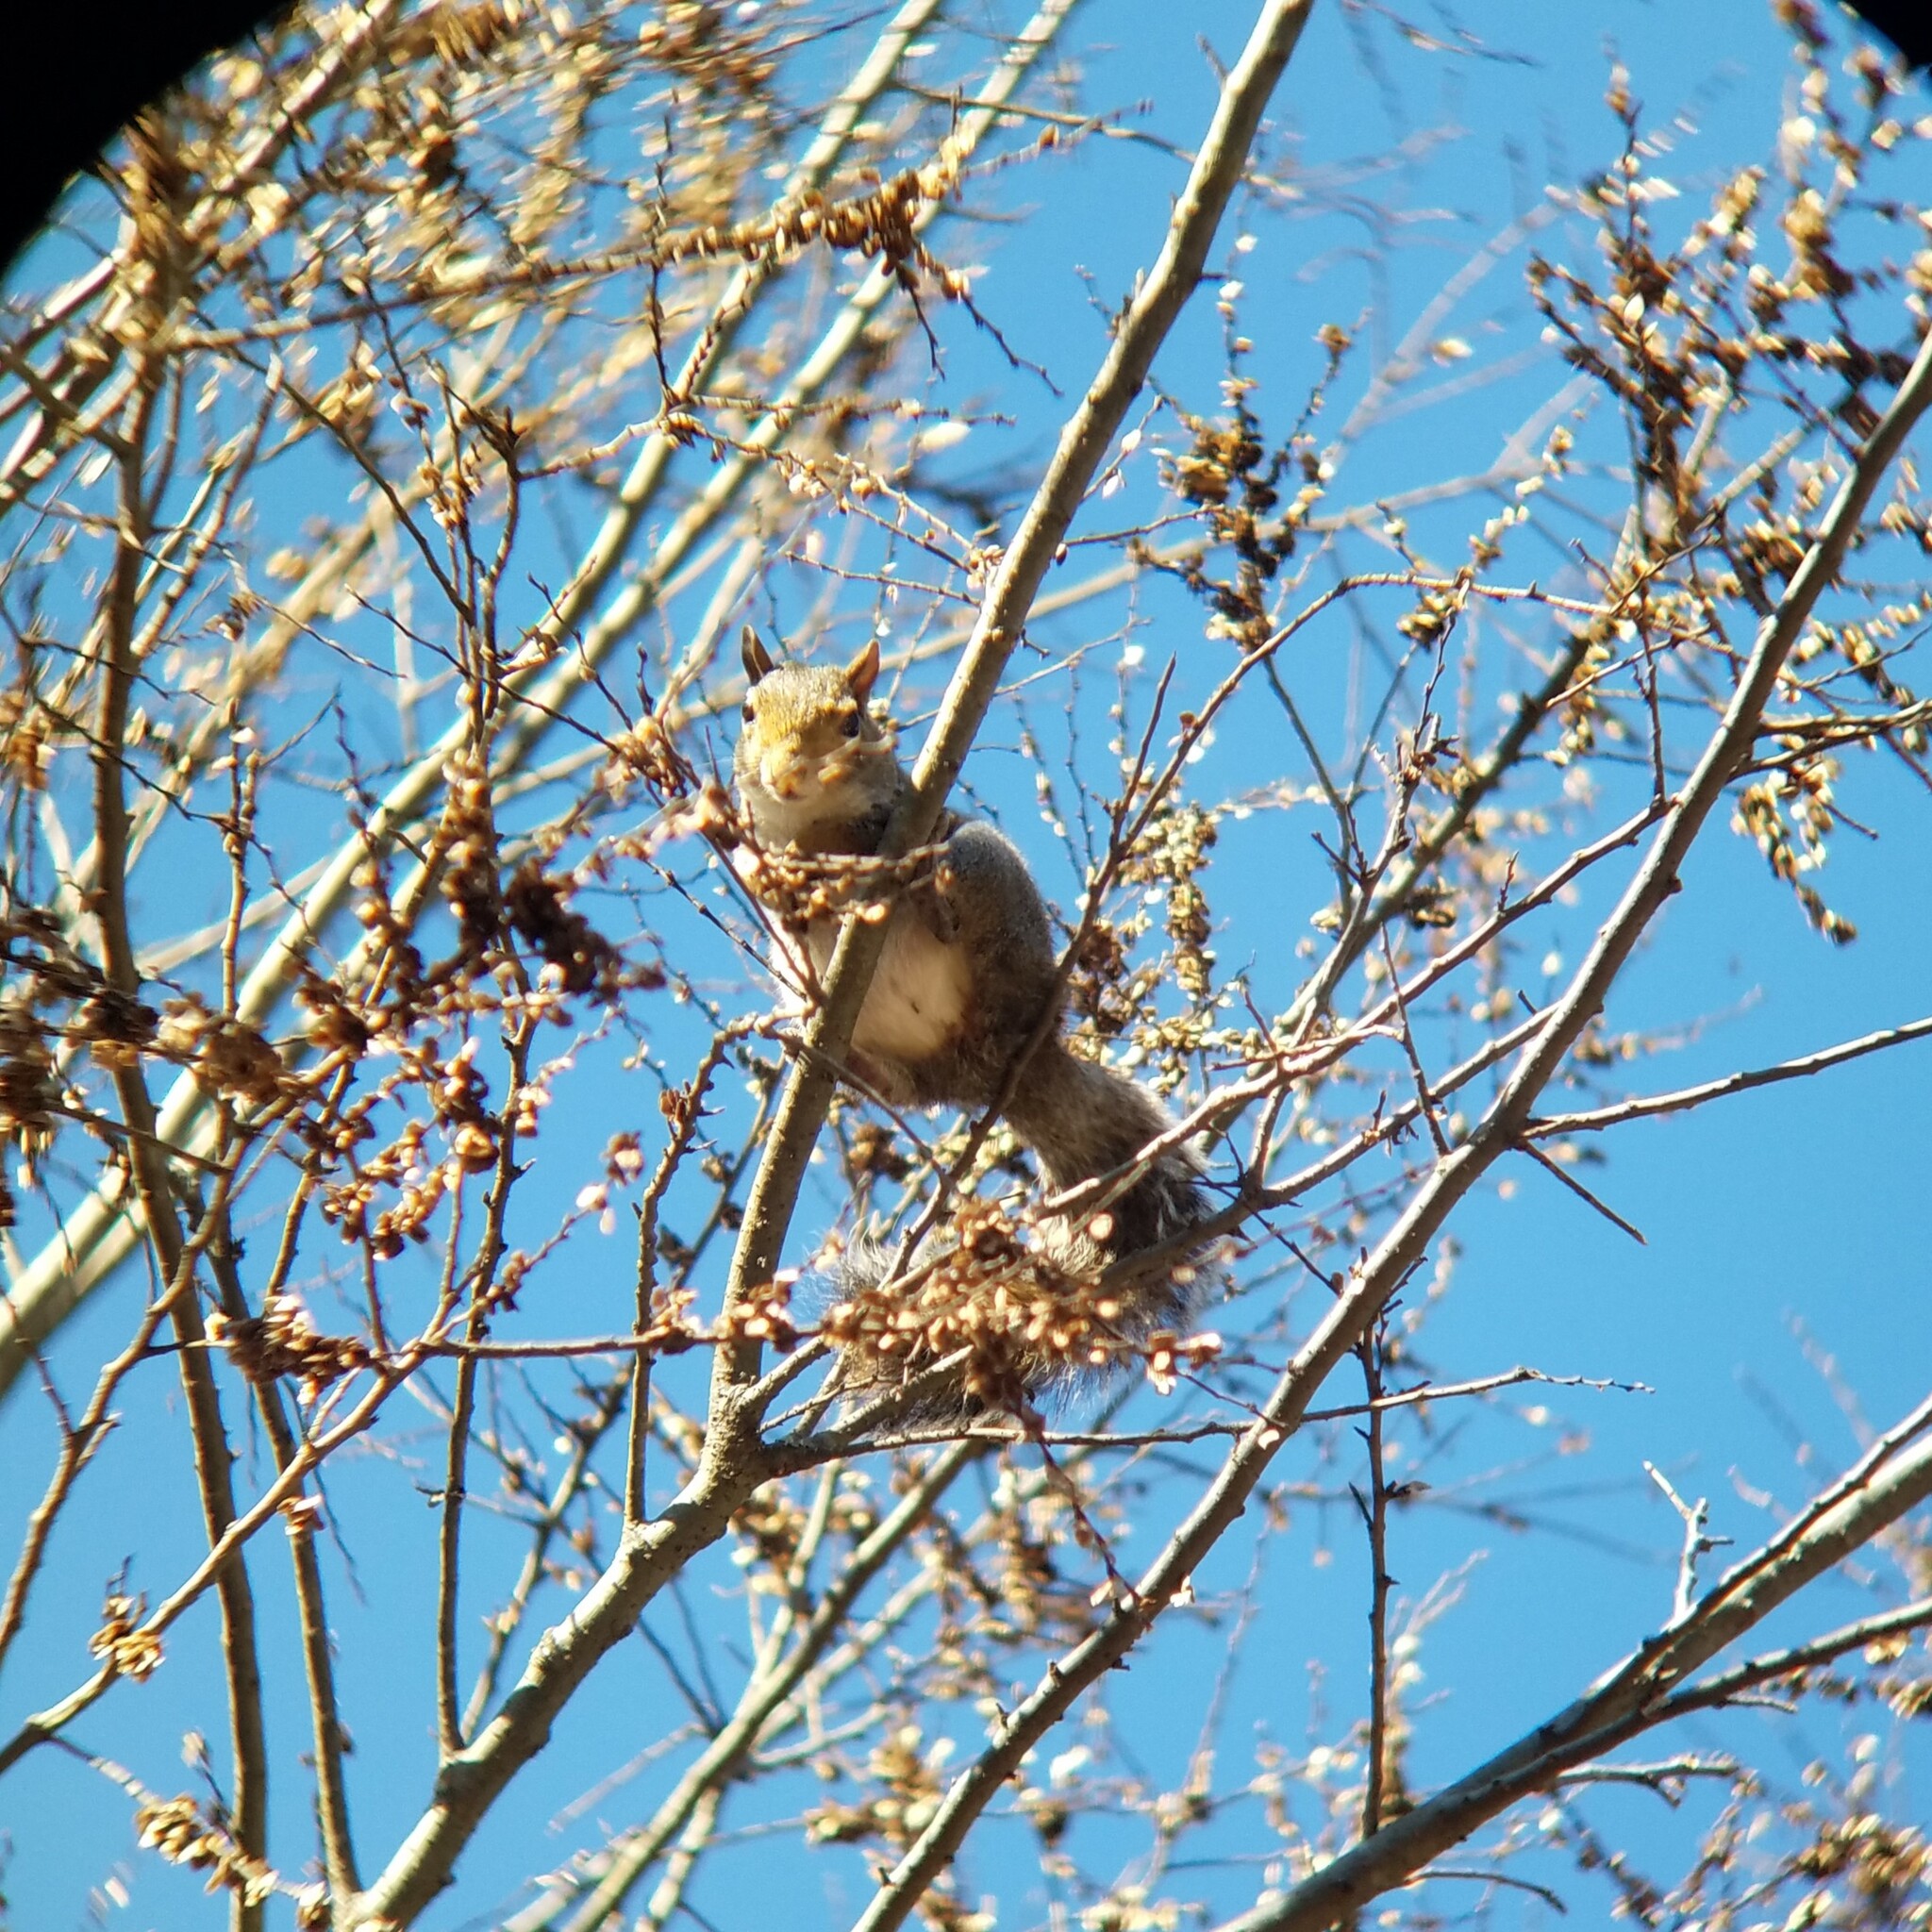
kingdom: Animalia
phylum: Chordata
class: Mammalia
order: Rodentia
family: Sciuridae
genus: Sciurus
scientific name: Sciurus carolinensis
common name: Eastern gray squirrel
